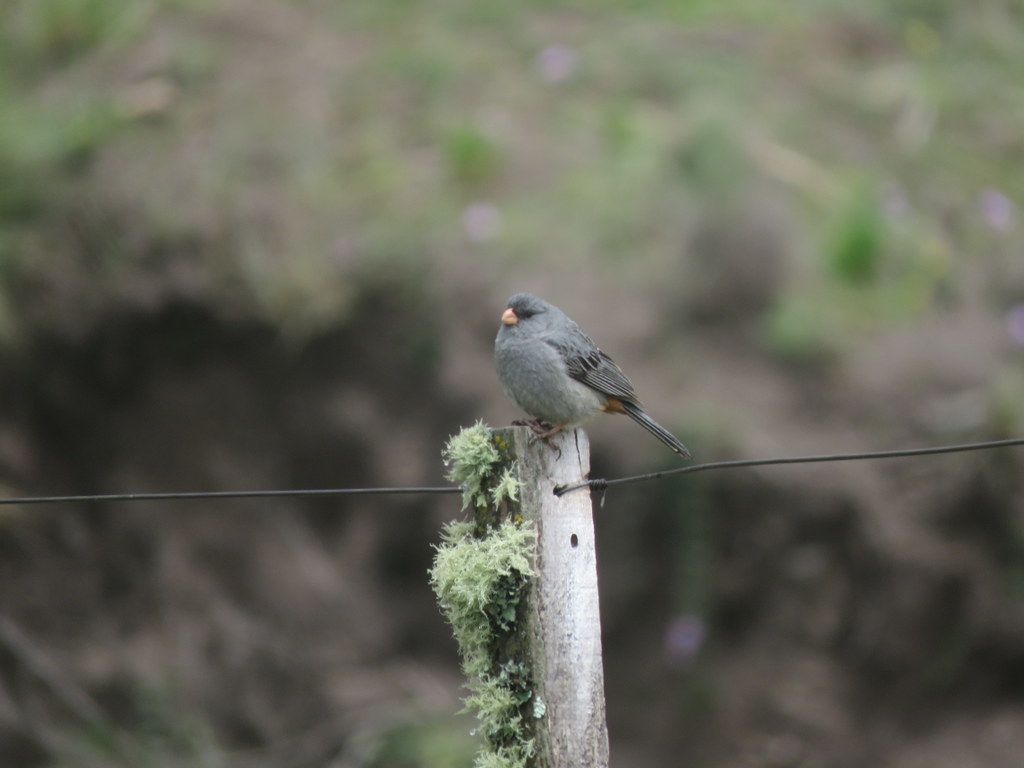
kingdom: Animalia
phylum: Chordata
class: Aves
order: Passeriformes
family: Thraupidae
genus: Catamenia
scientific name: Catamenia inornata
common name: Plain-colored seedeater
